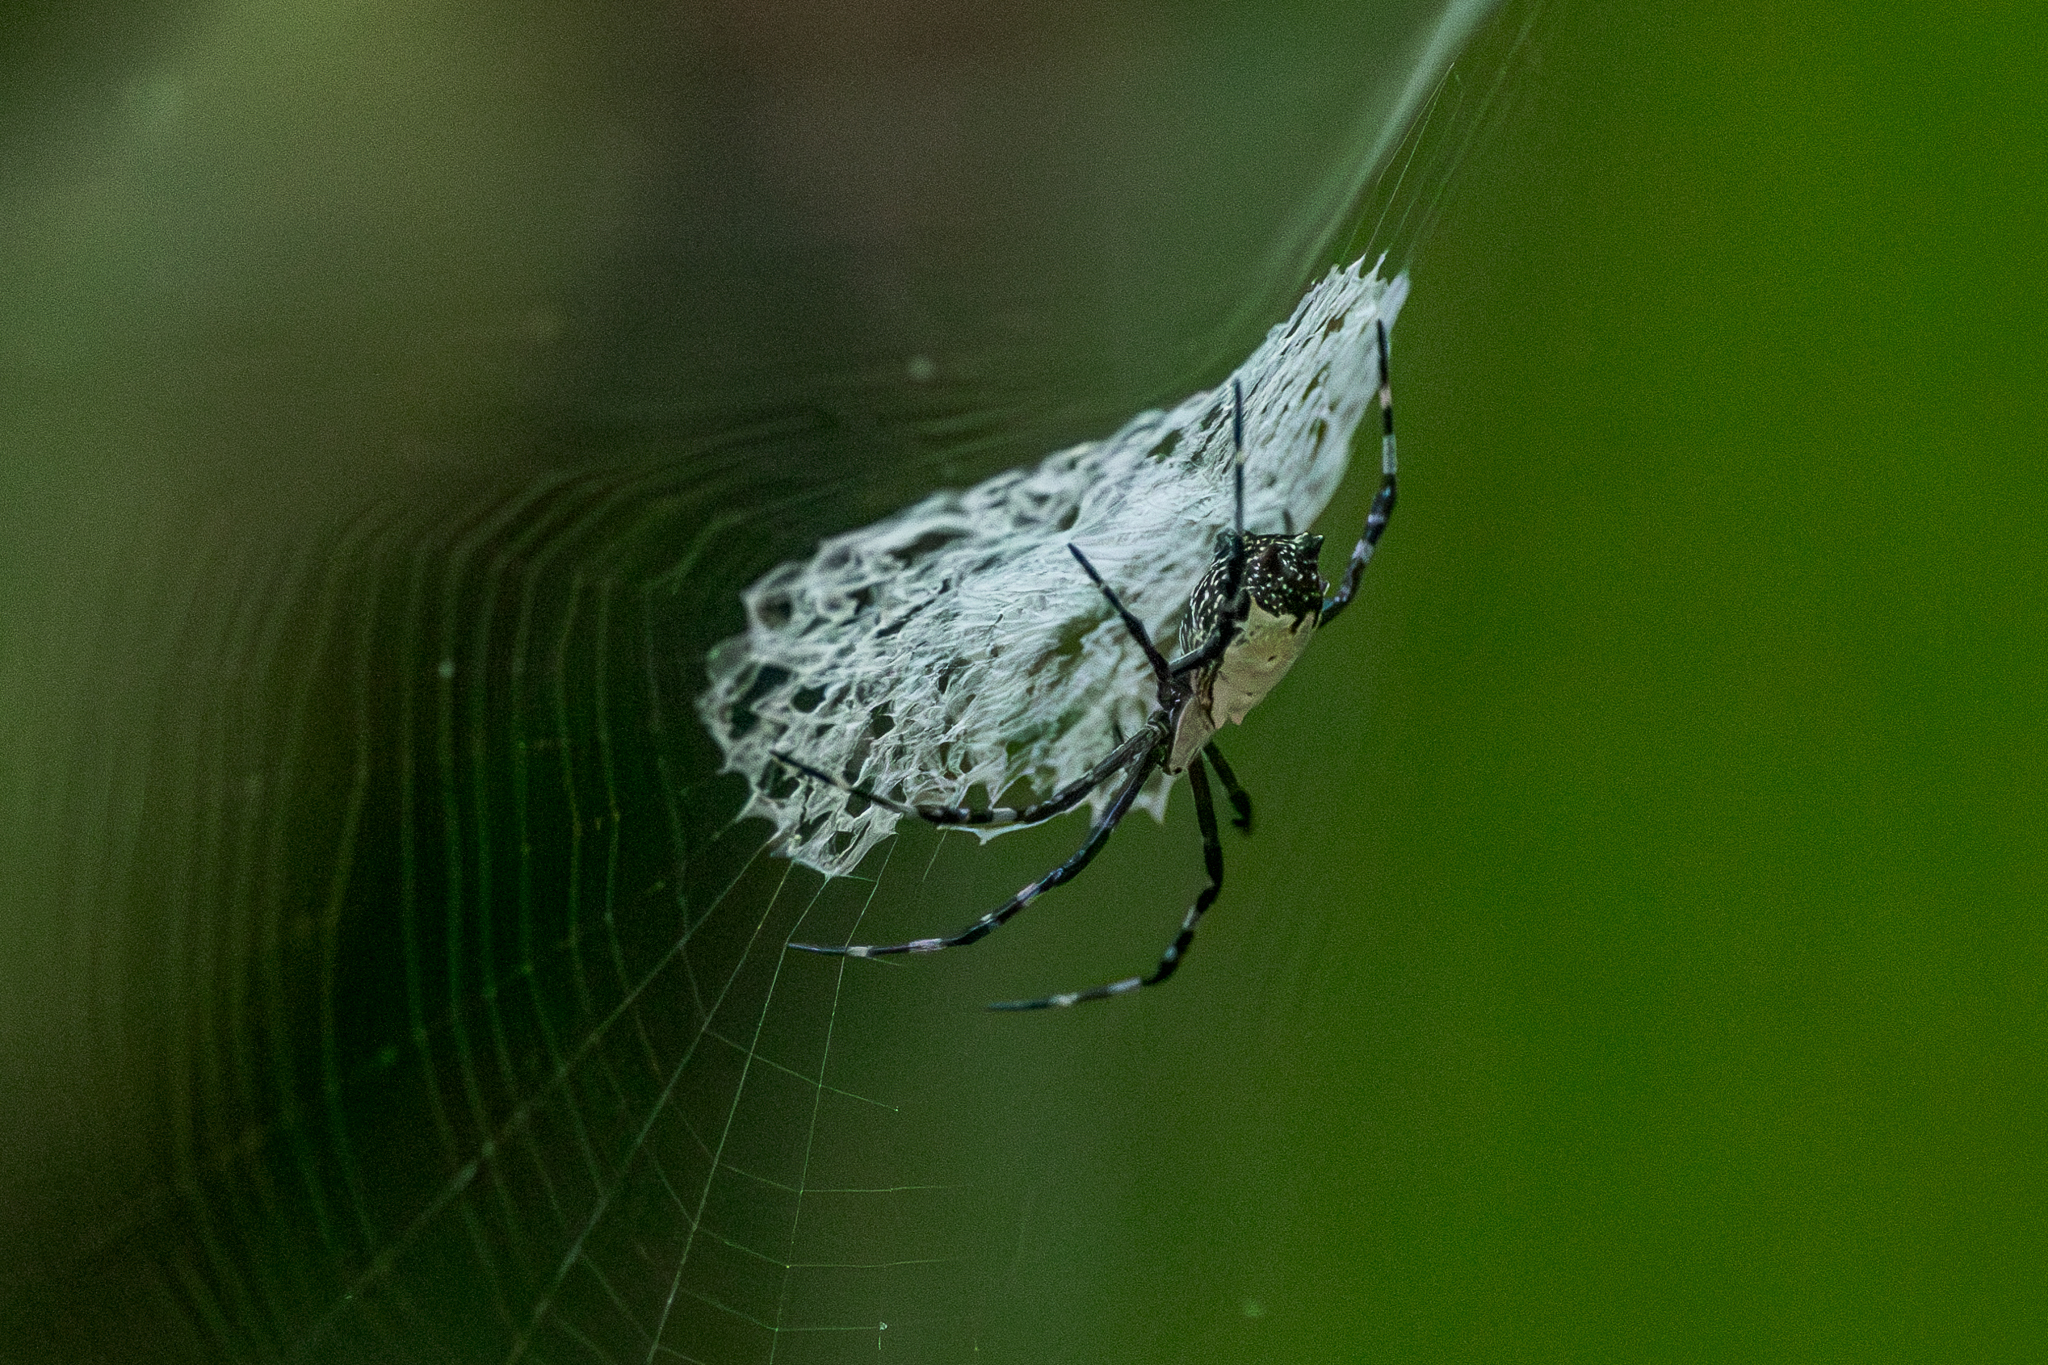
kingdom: Animalia
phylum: Arthropoda
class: Arachnida
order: Araneae
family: Araneidae
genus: Argiope
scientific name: Argiope submaronica
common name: Orb weavers
